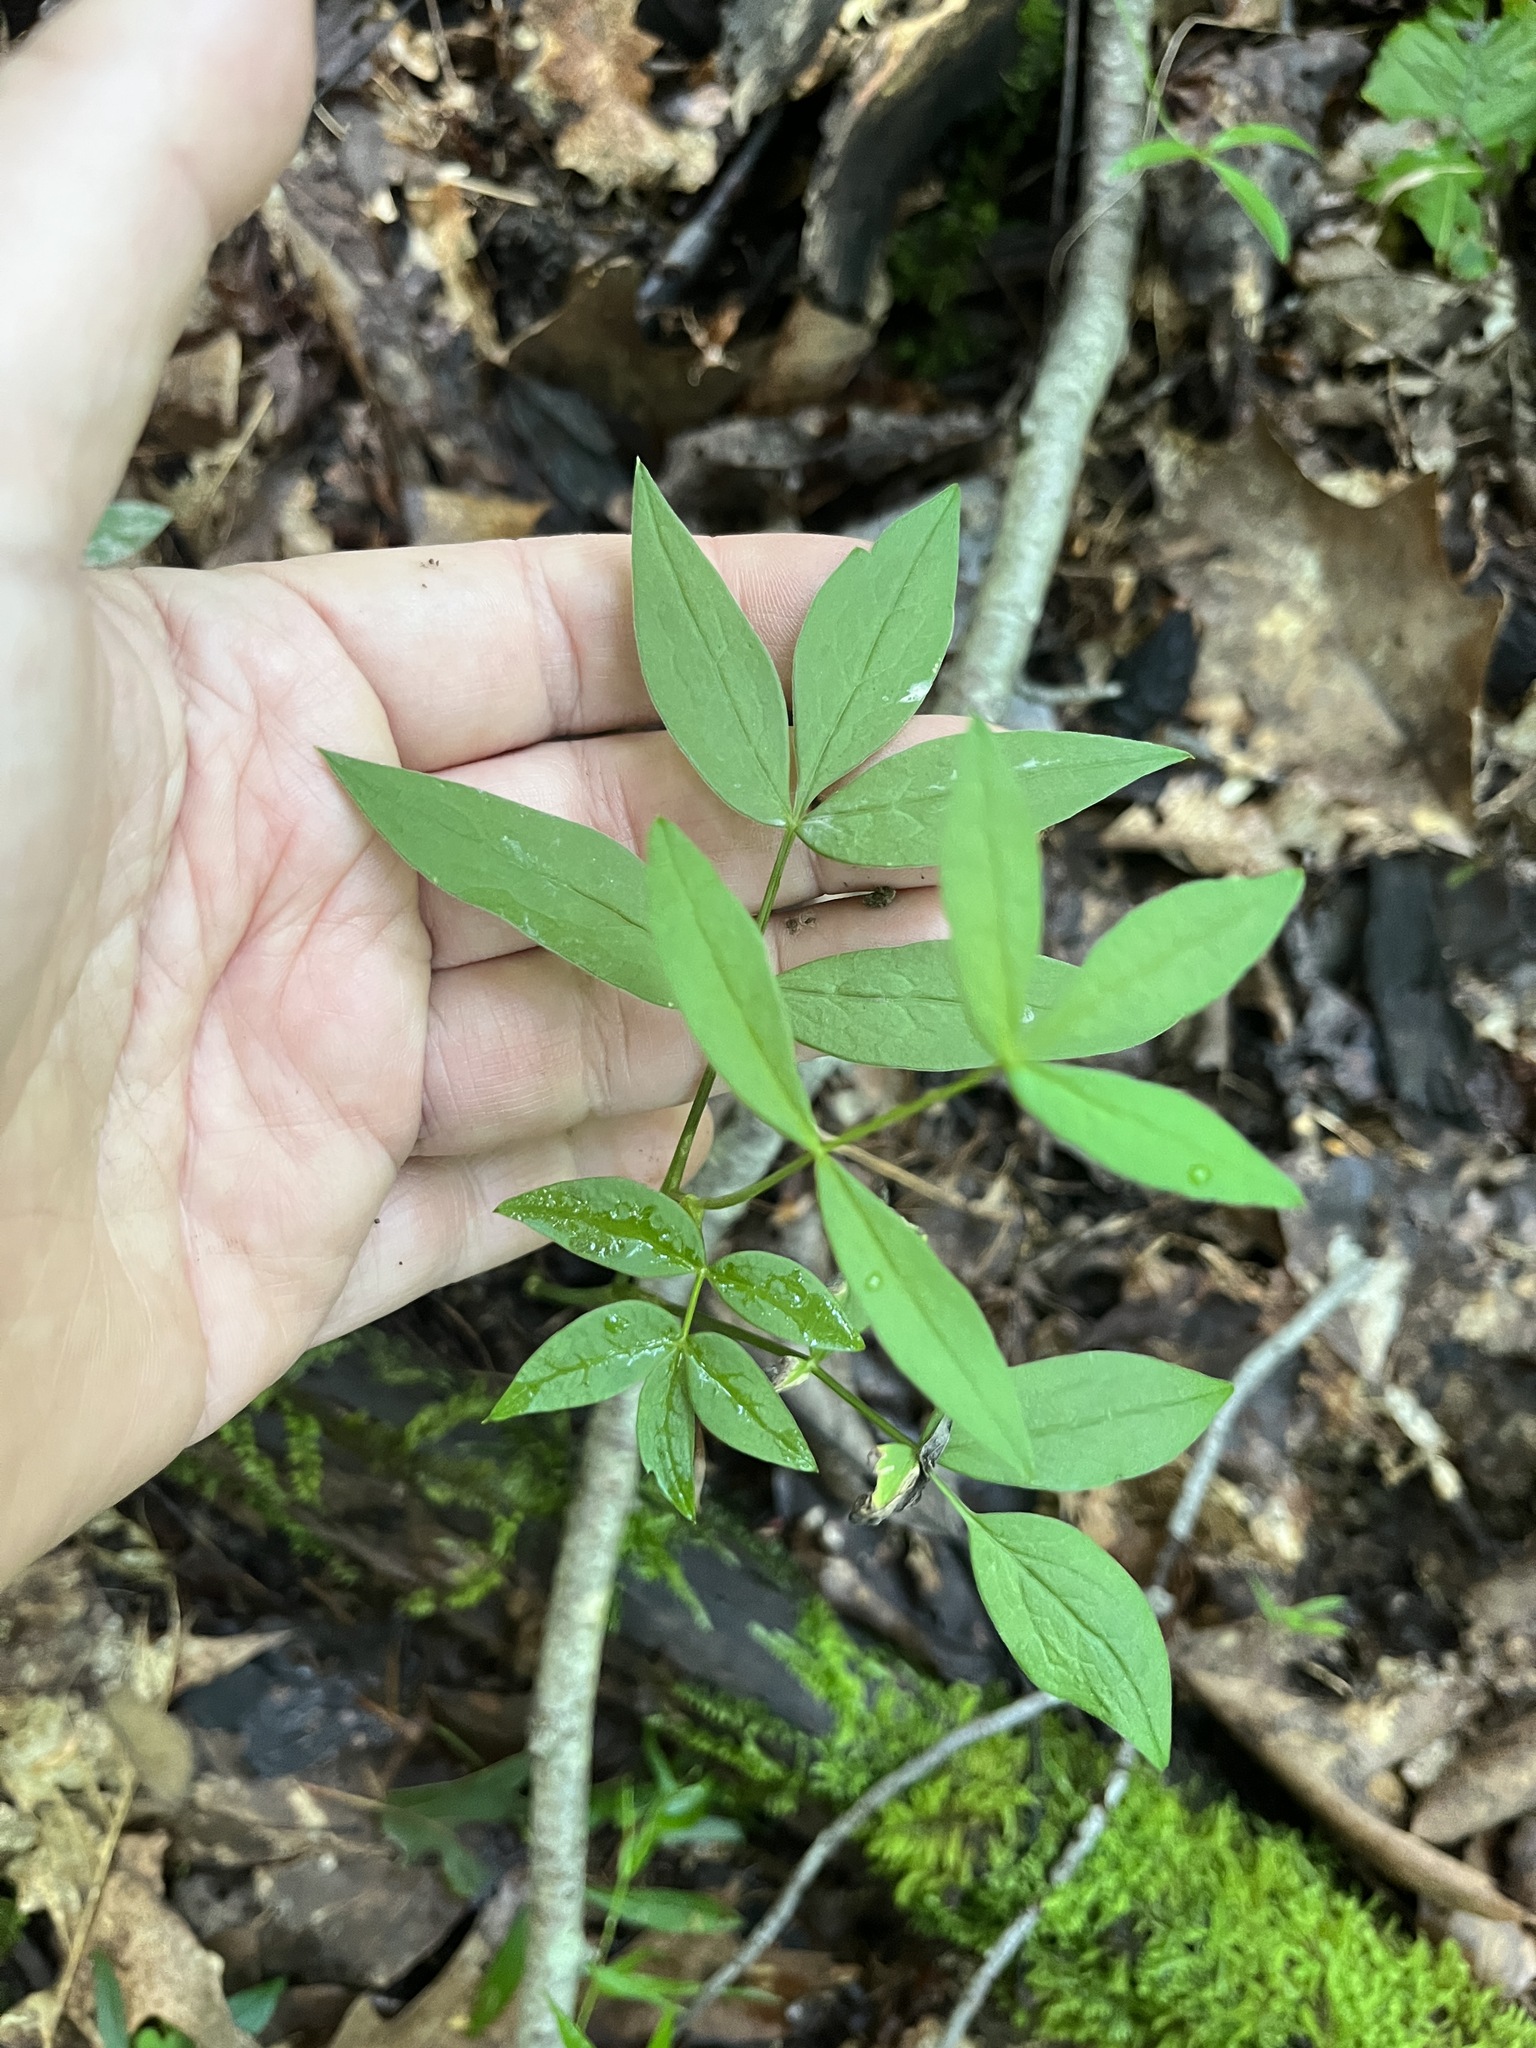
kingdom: Plantae
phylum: Tracheophyta
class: Magnoliopsida
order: Apiales
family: Apiaceae
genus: Oxypolis
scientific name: Oxypolis rigidior
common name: Cowbane
